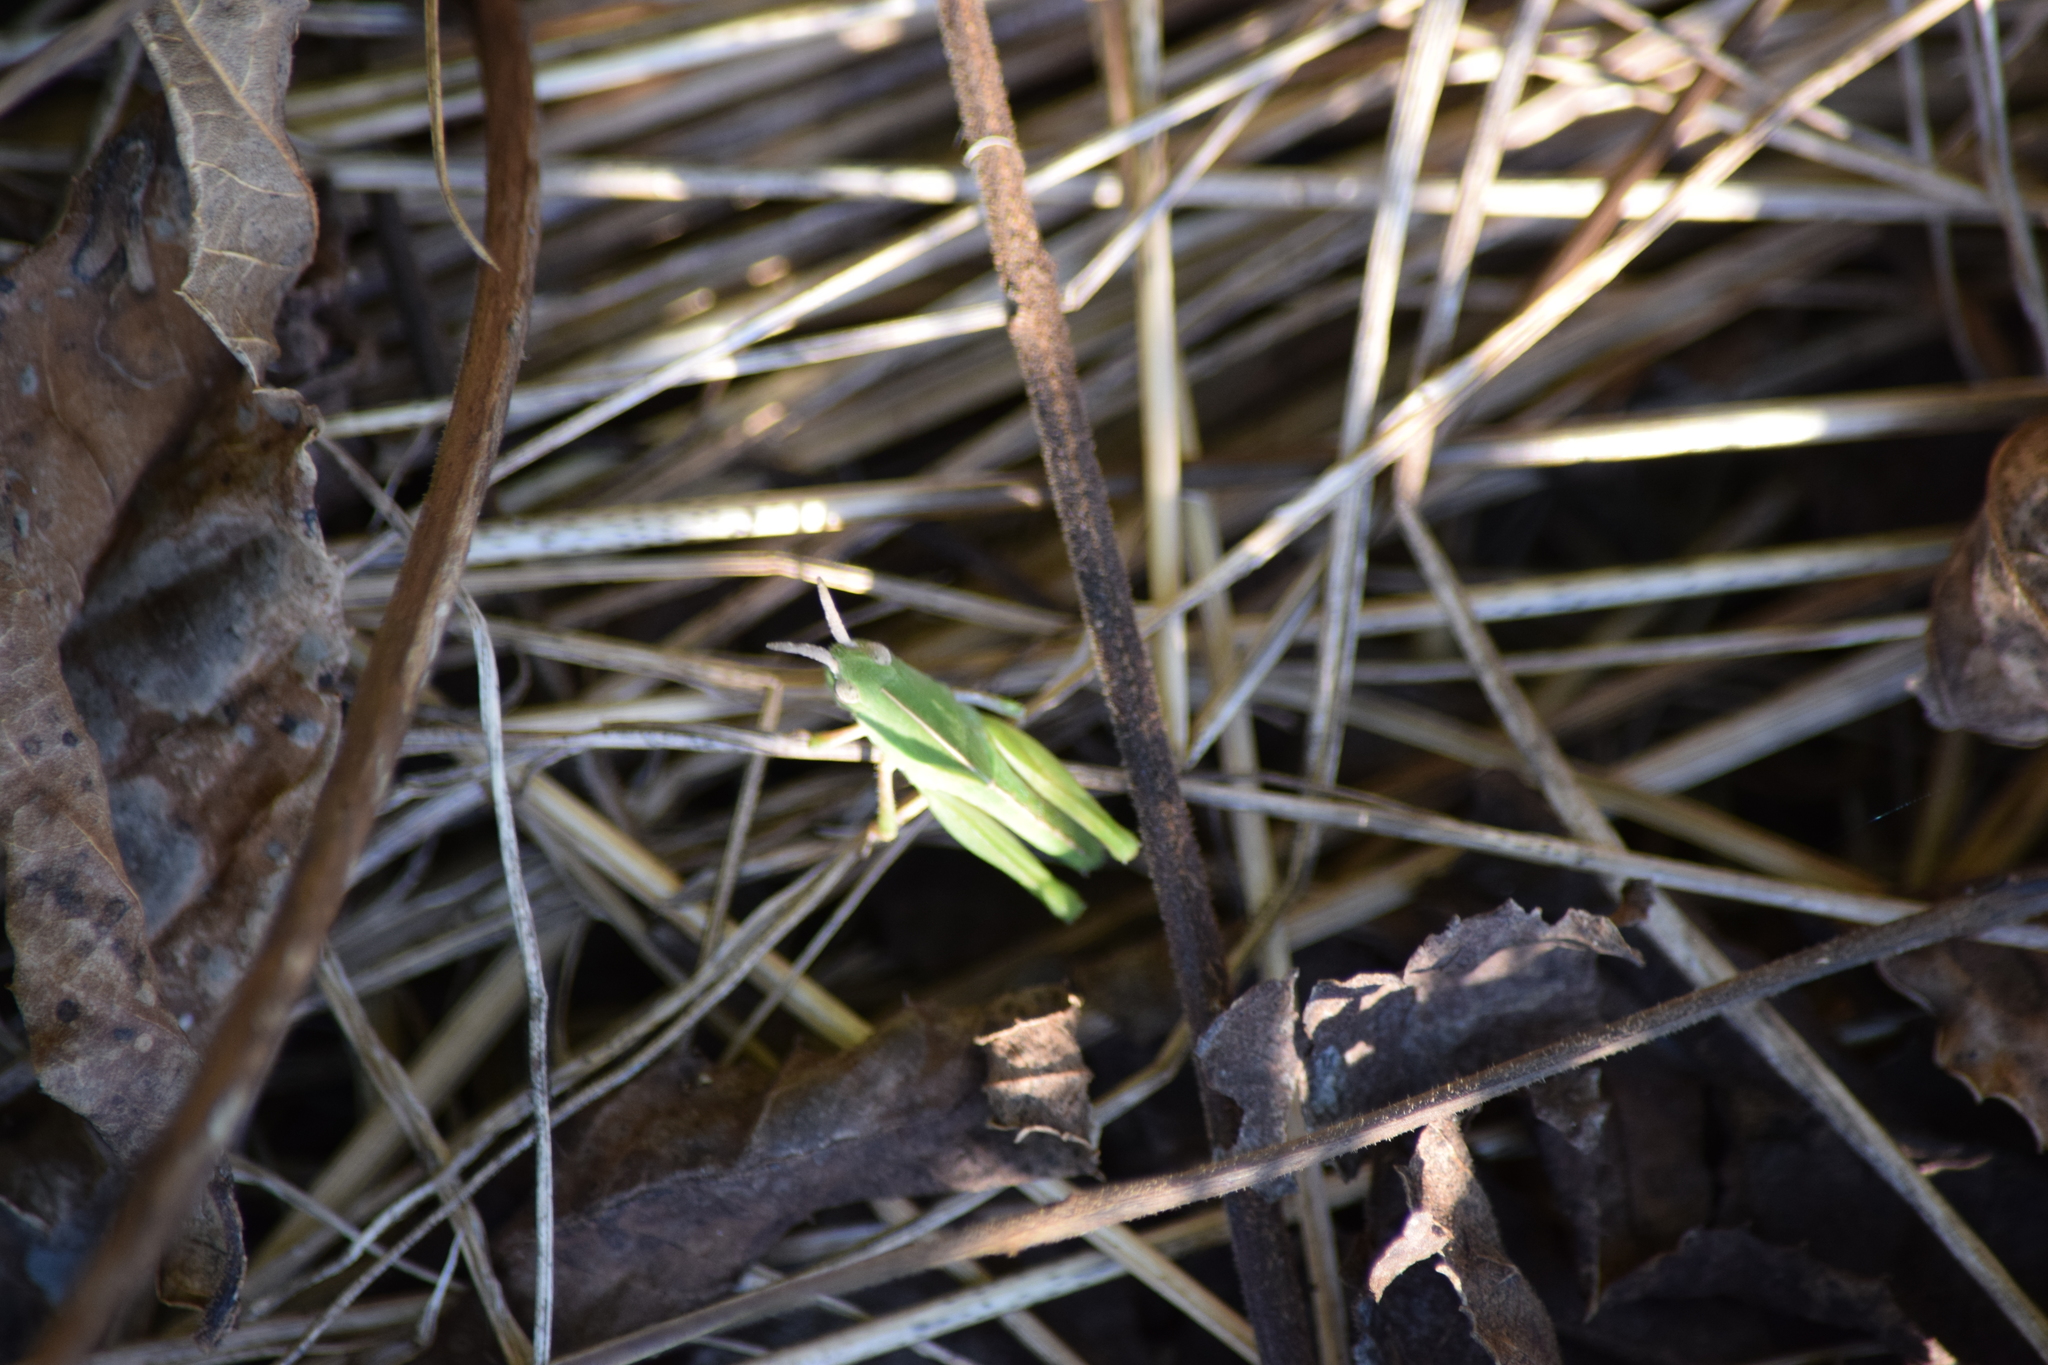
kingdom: Animalia
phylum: Arthropoda
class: Insecta
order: Orthoptera
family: Acrididae
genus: Chortophaga
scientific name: Chortophaga viridifasciata
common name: Green-striped grasshopper
